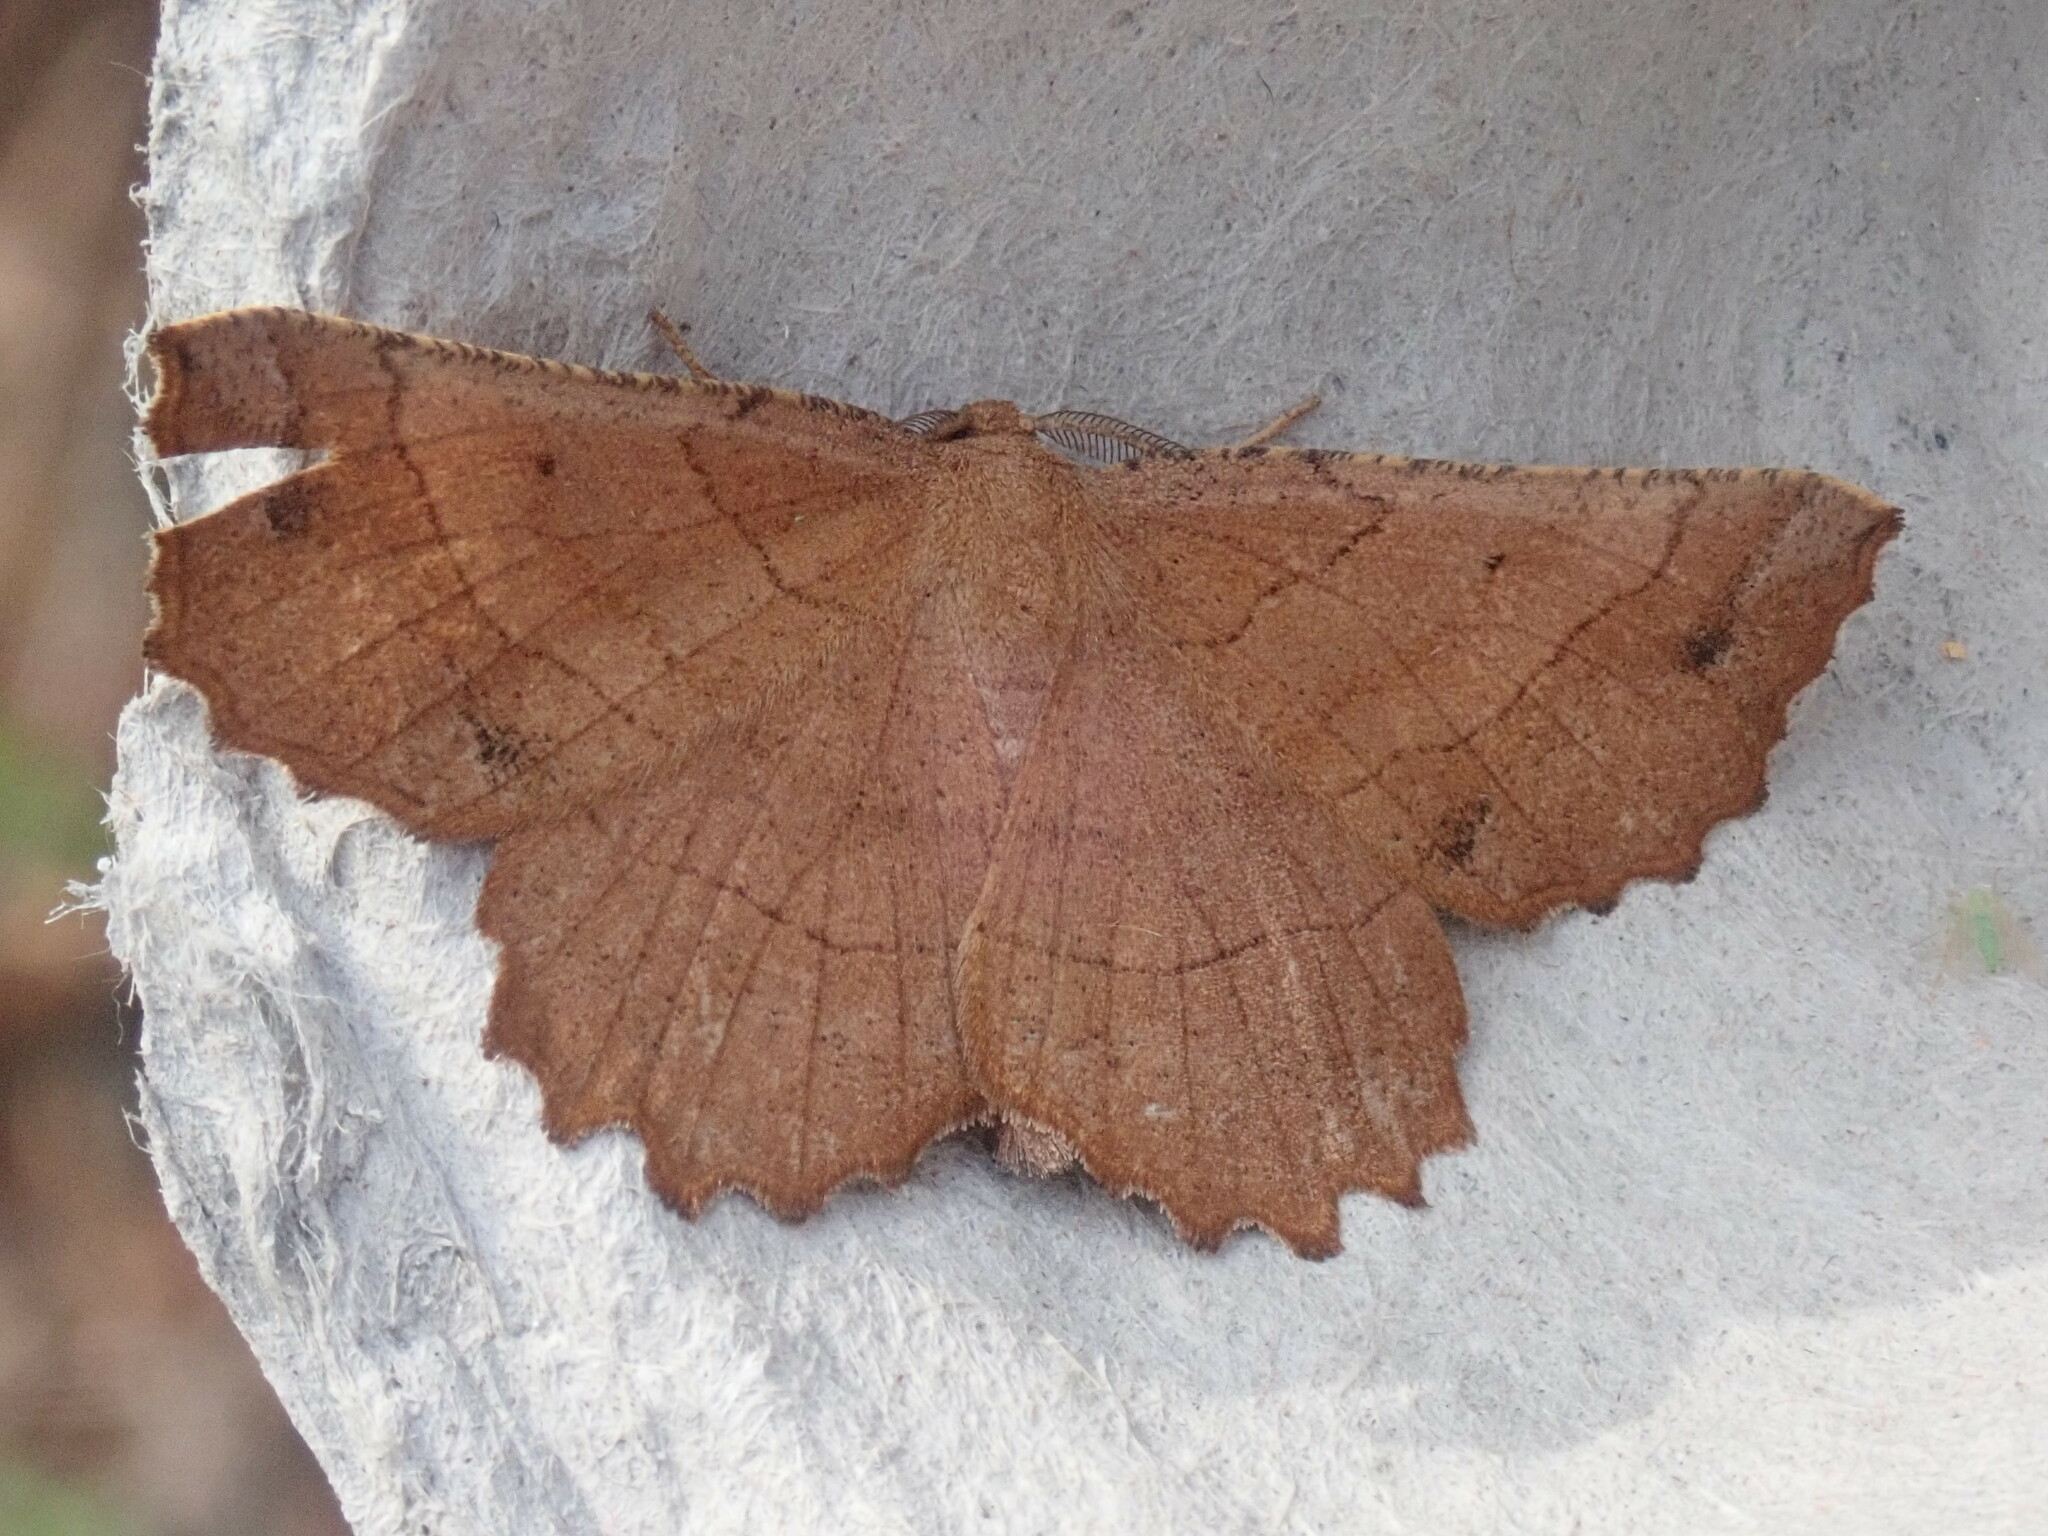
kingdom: Animalia
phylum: Arthropoda
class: Insecta
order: Lepidoptera
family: Geometridae
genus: Euchlaena
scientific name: Euchlaena johnsonaria
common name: Johnson's euchlaena
